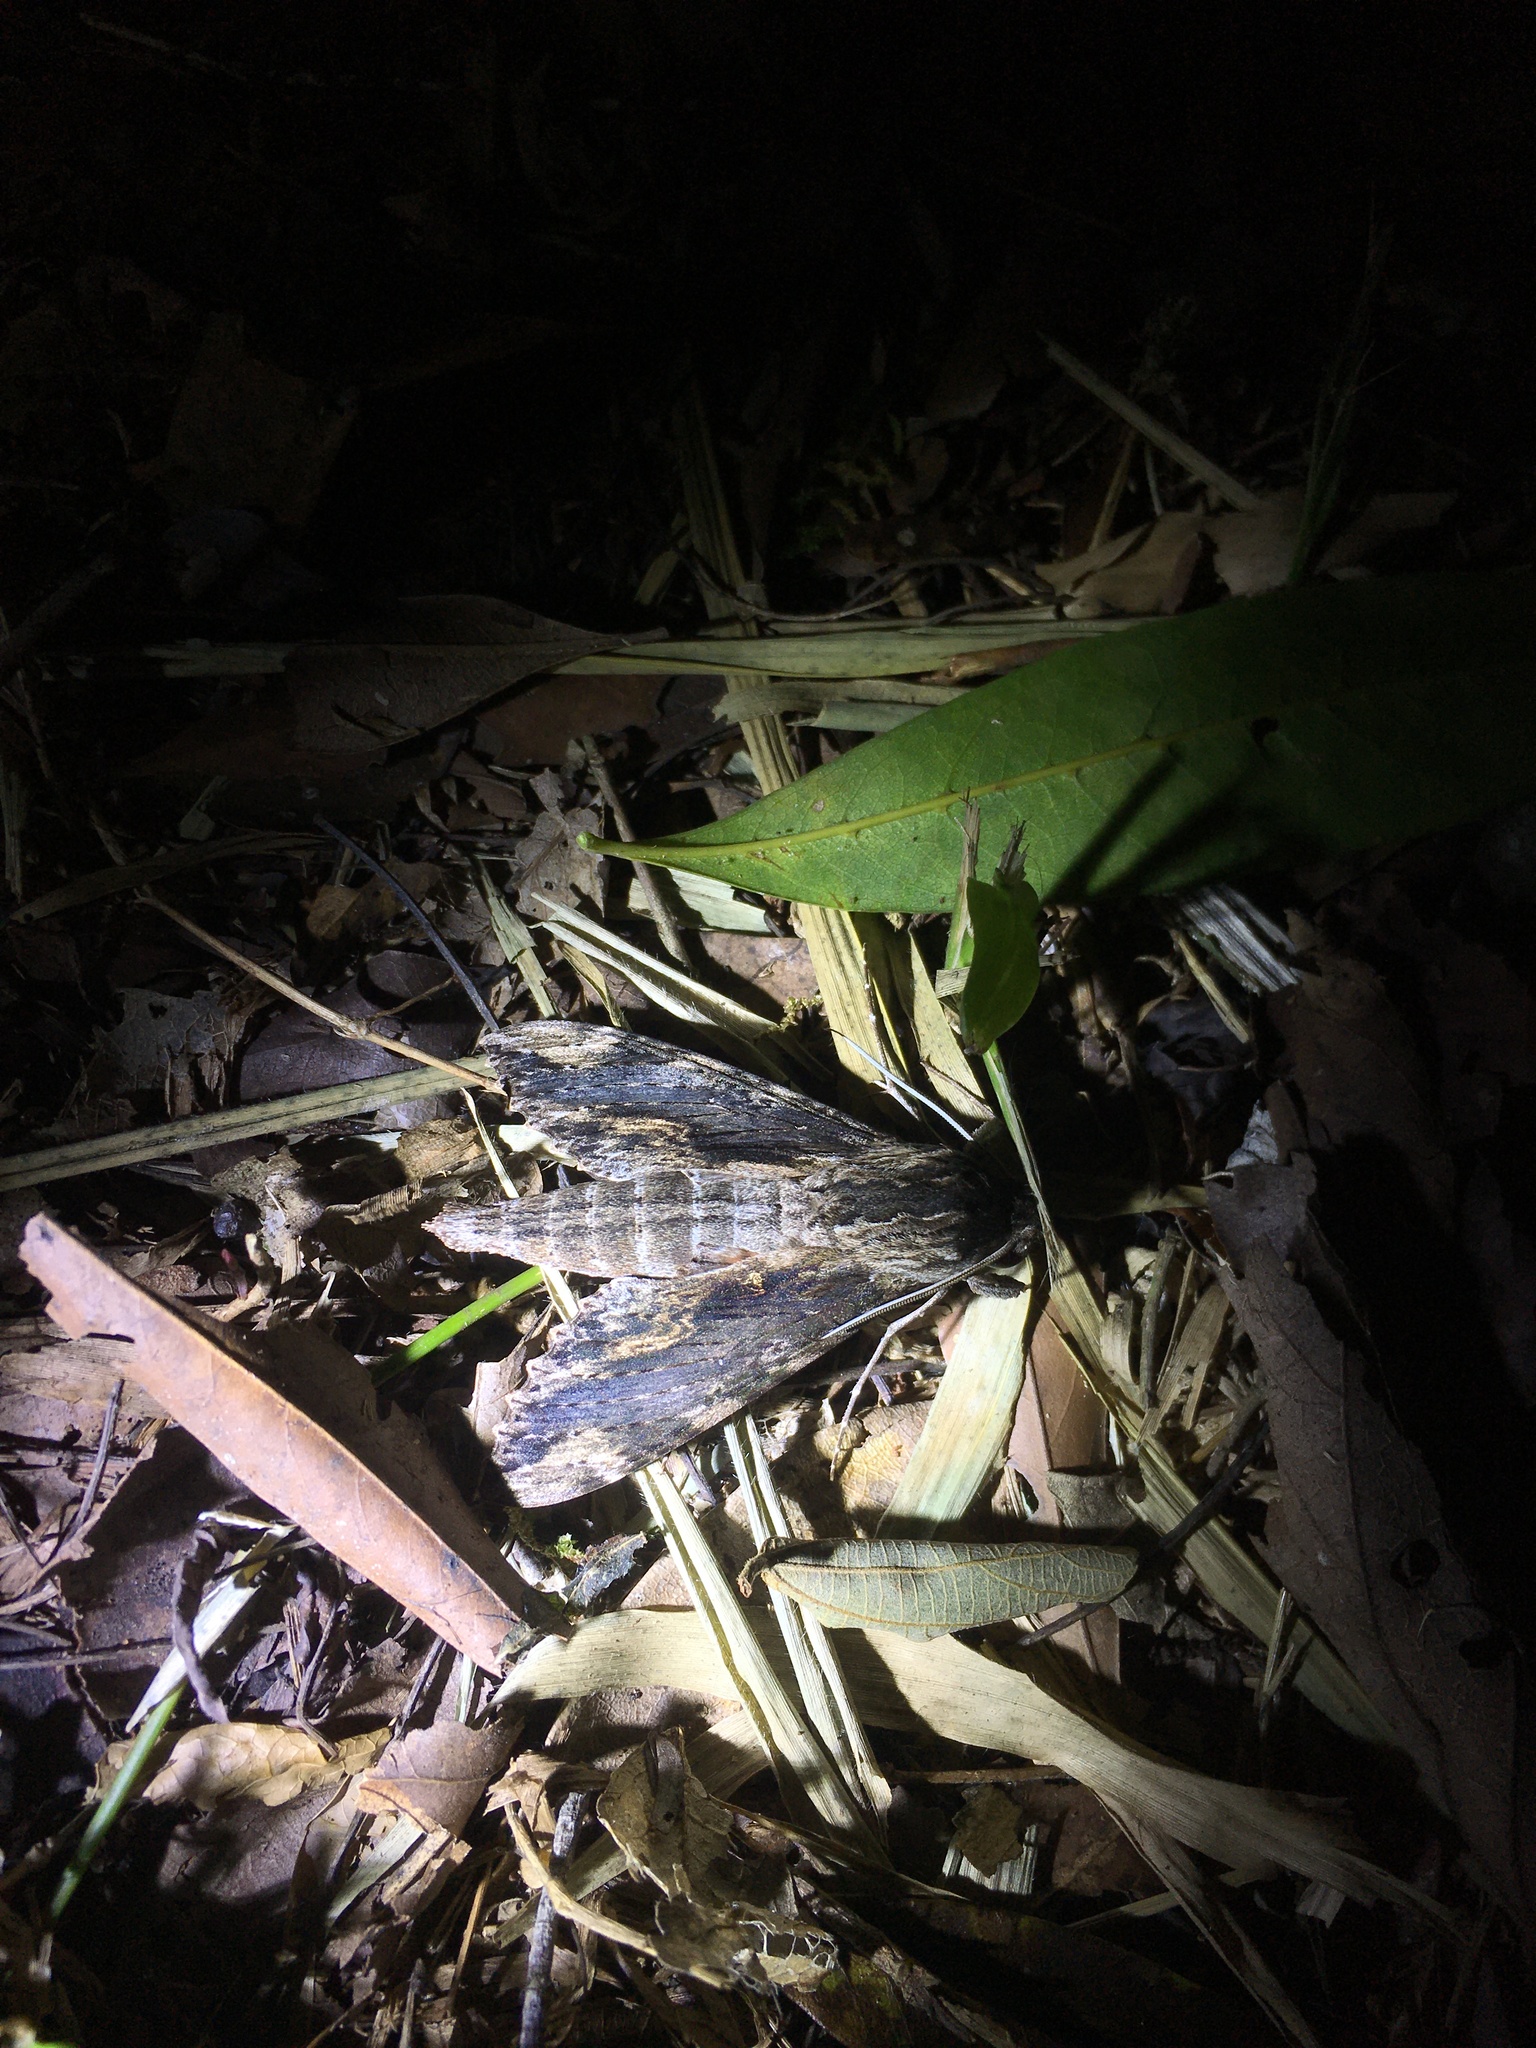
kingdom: Animalia
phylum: Arthropoda
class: Insecta
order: Lepidoptera
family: Sphingidae
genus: Erinnyis
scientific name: Erinnyis oenotrus
